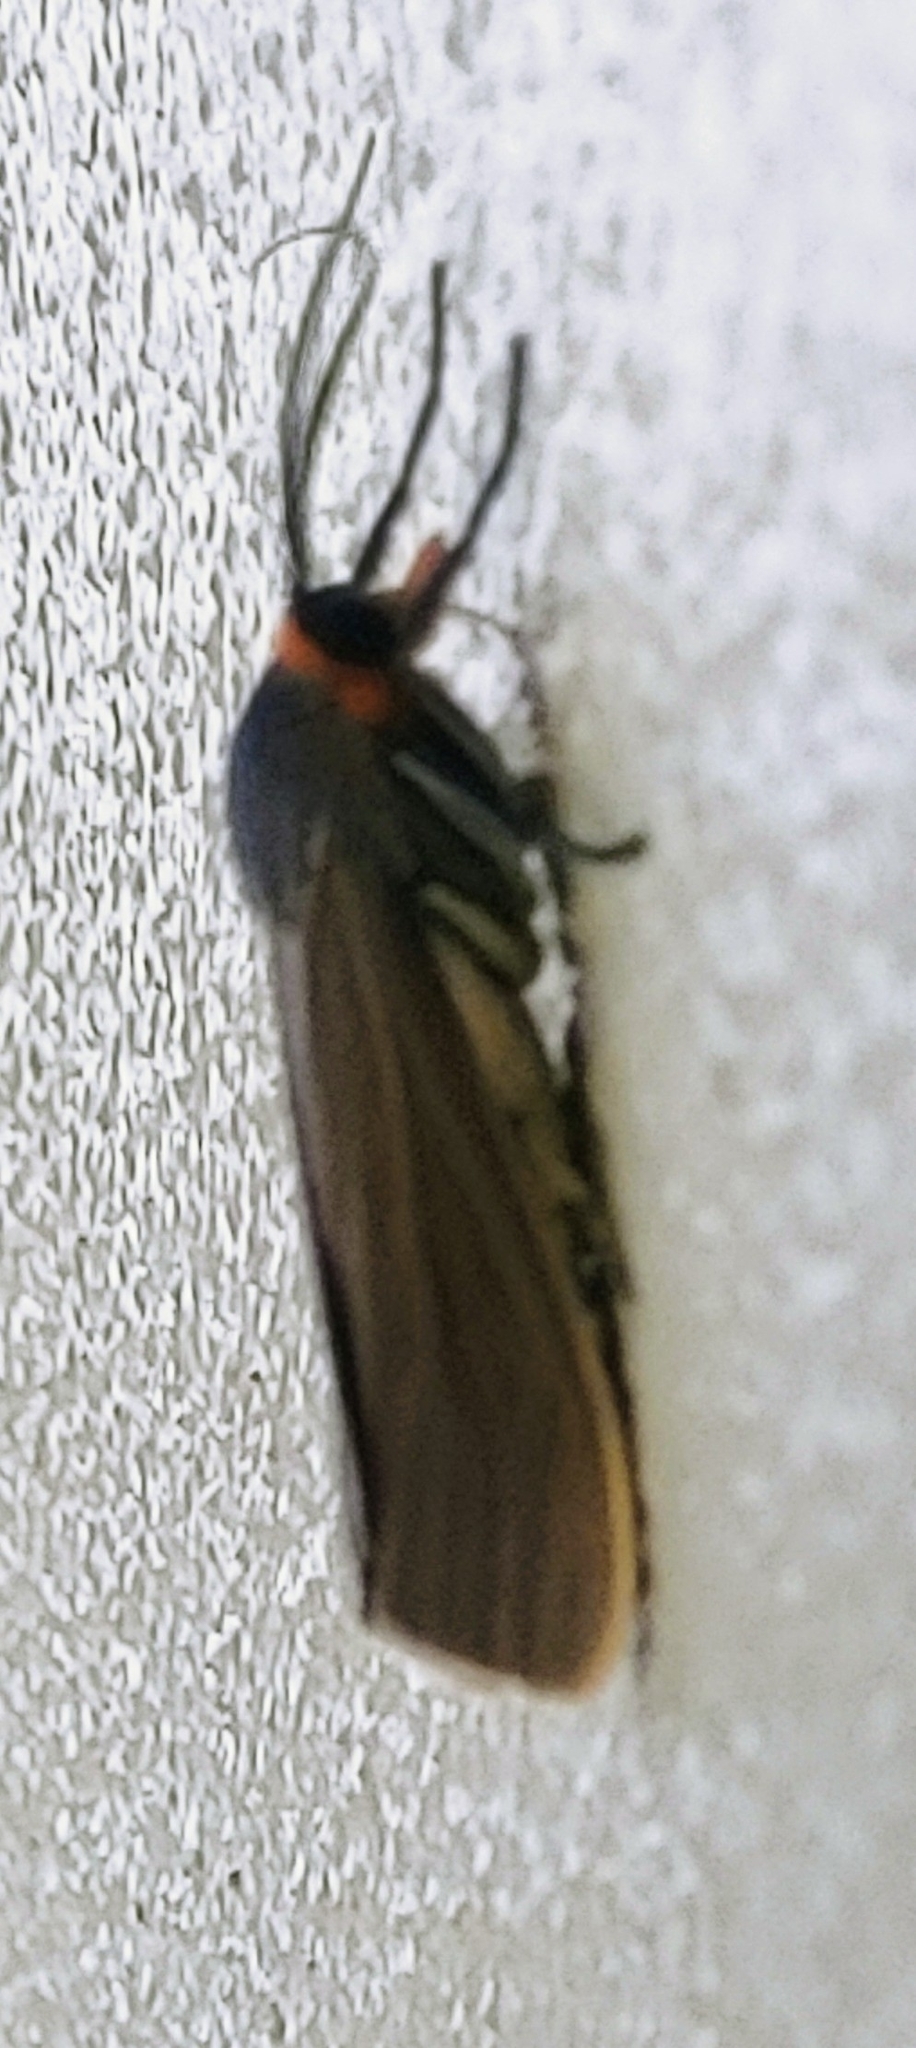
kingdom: Animalia
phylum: Arthropoda
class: Insecta
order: Lepidoptera
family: Erebidae
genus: Lymire
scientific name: Lymire edwardsii
